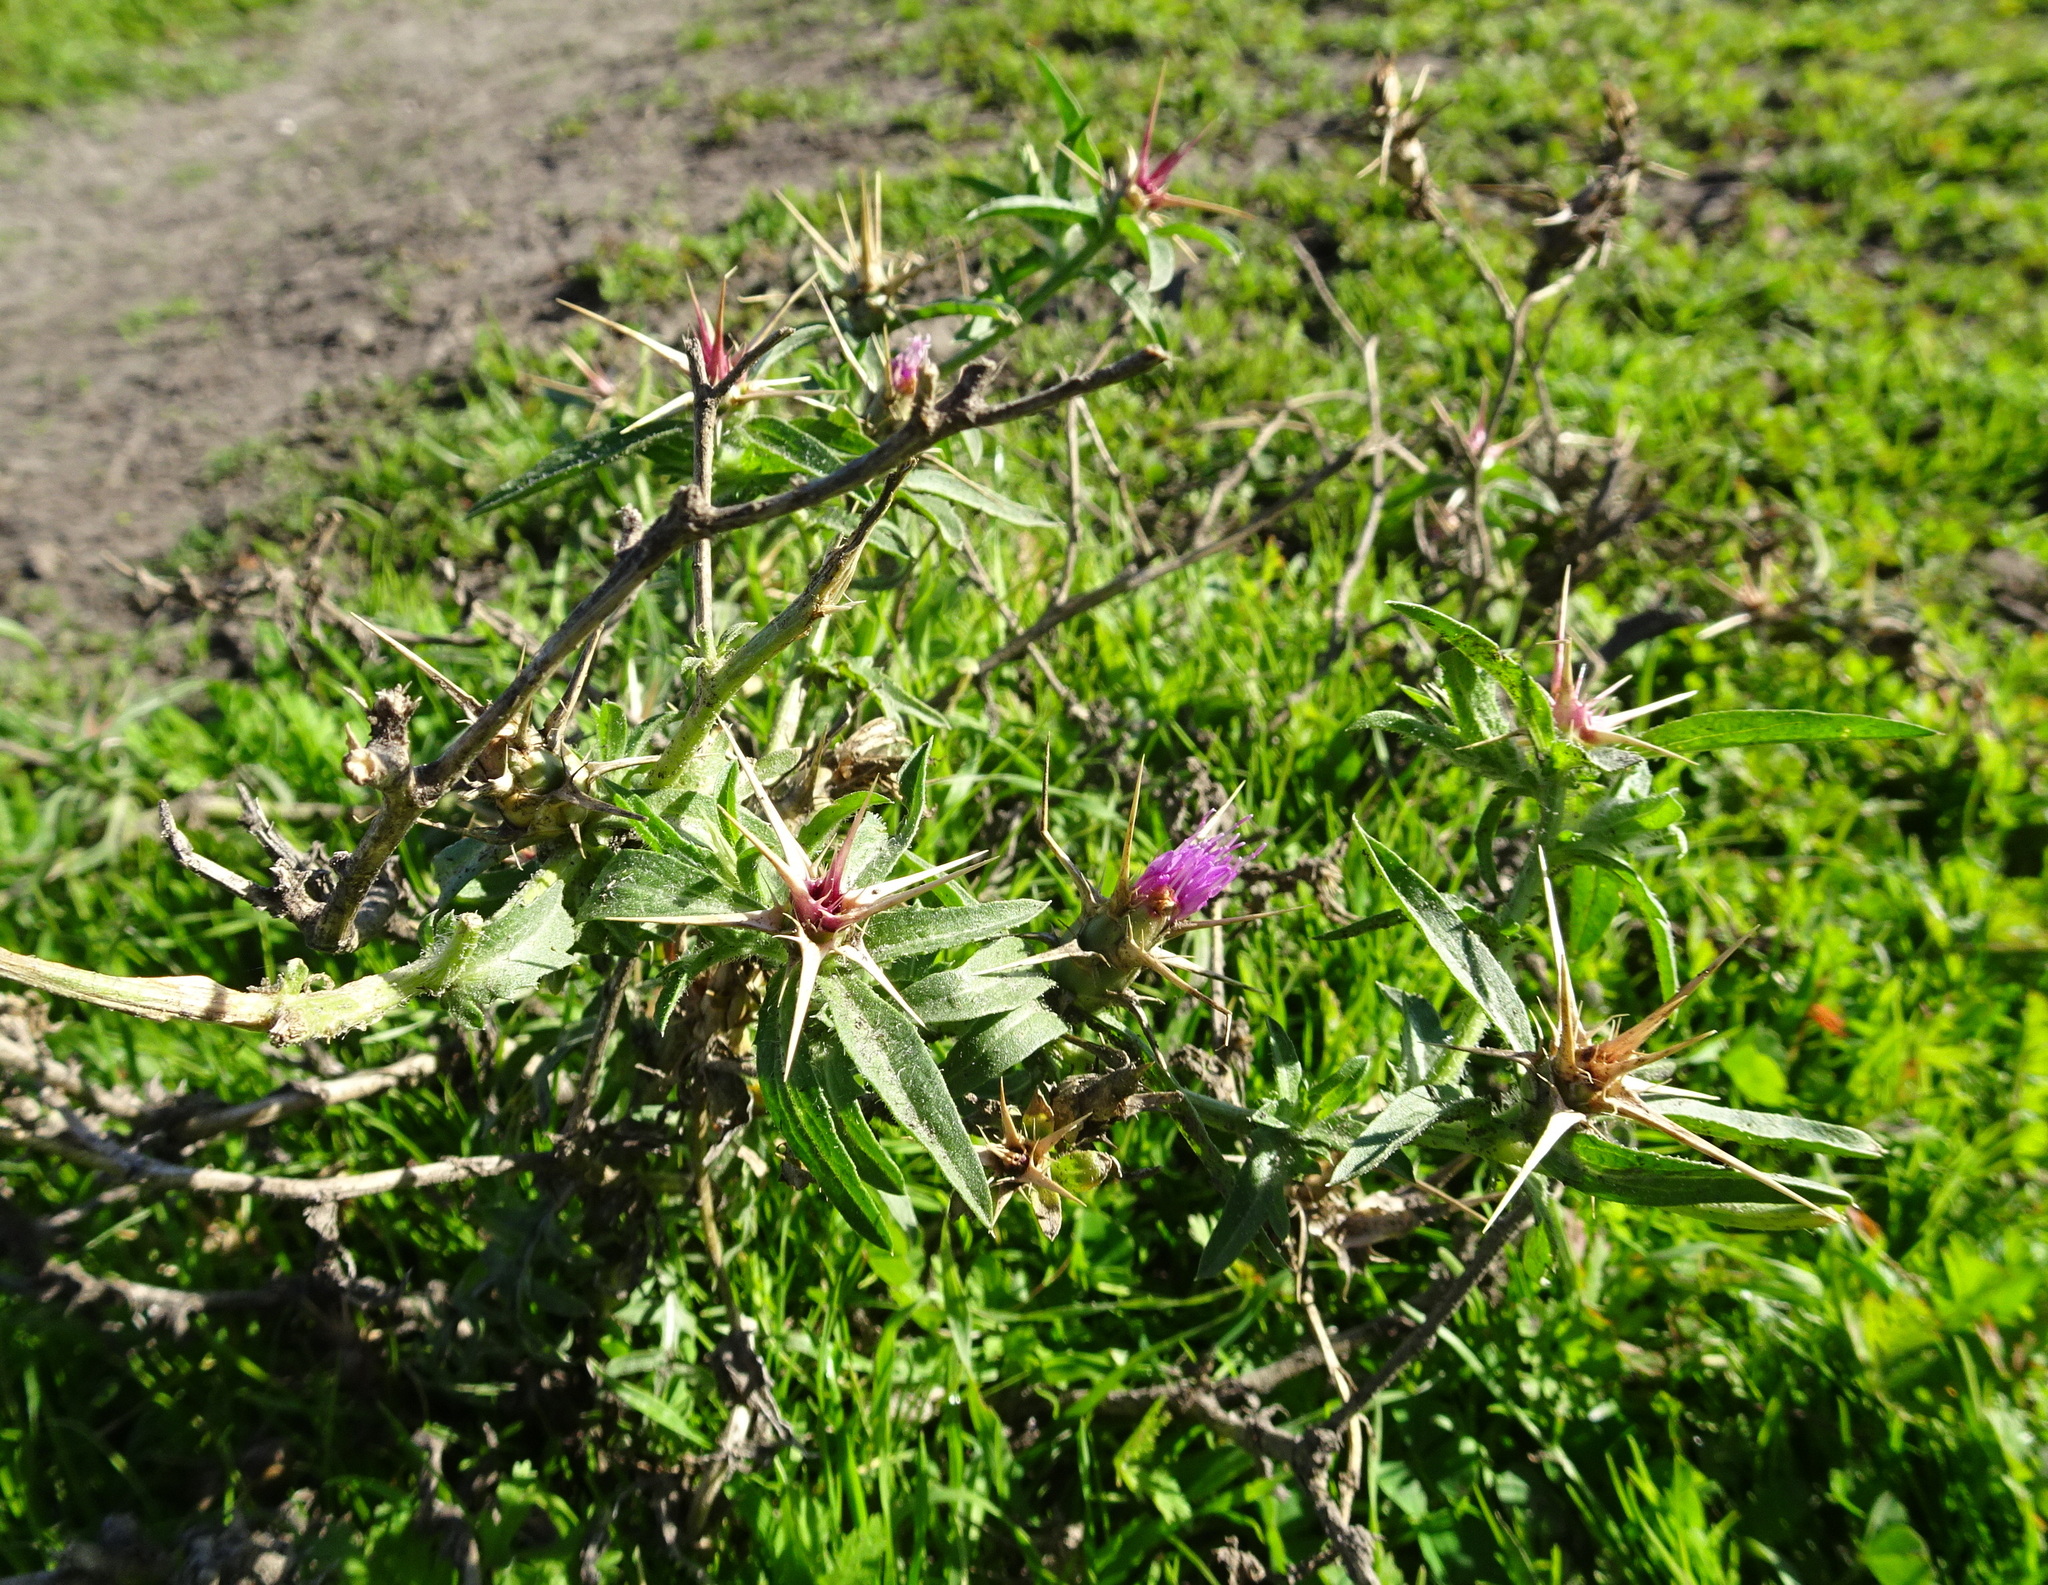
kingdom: Plantae
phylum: Tracheophyta
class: Magnoliopsida
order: Asterales
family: Asteraceae
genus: Centaurea
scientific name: Centaurea calcitrapa
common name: Red star-thistle
